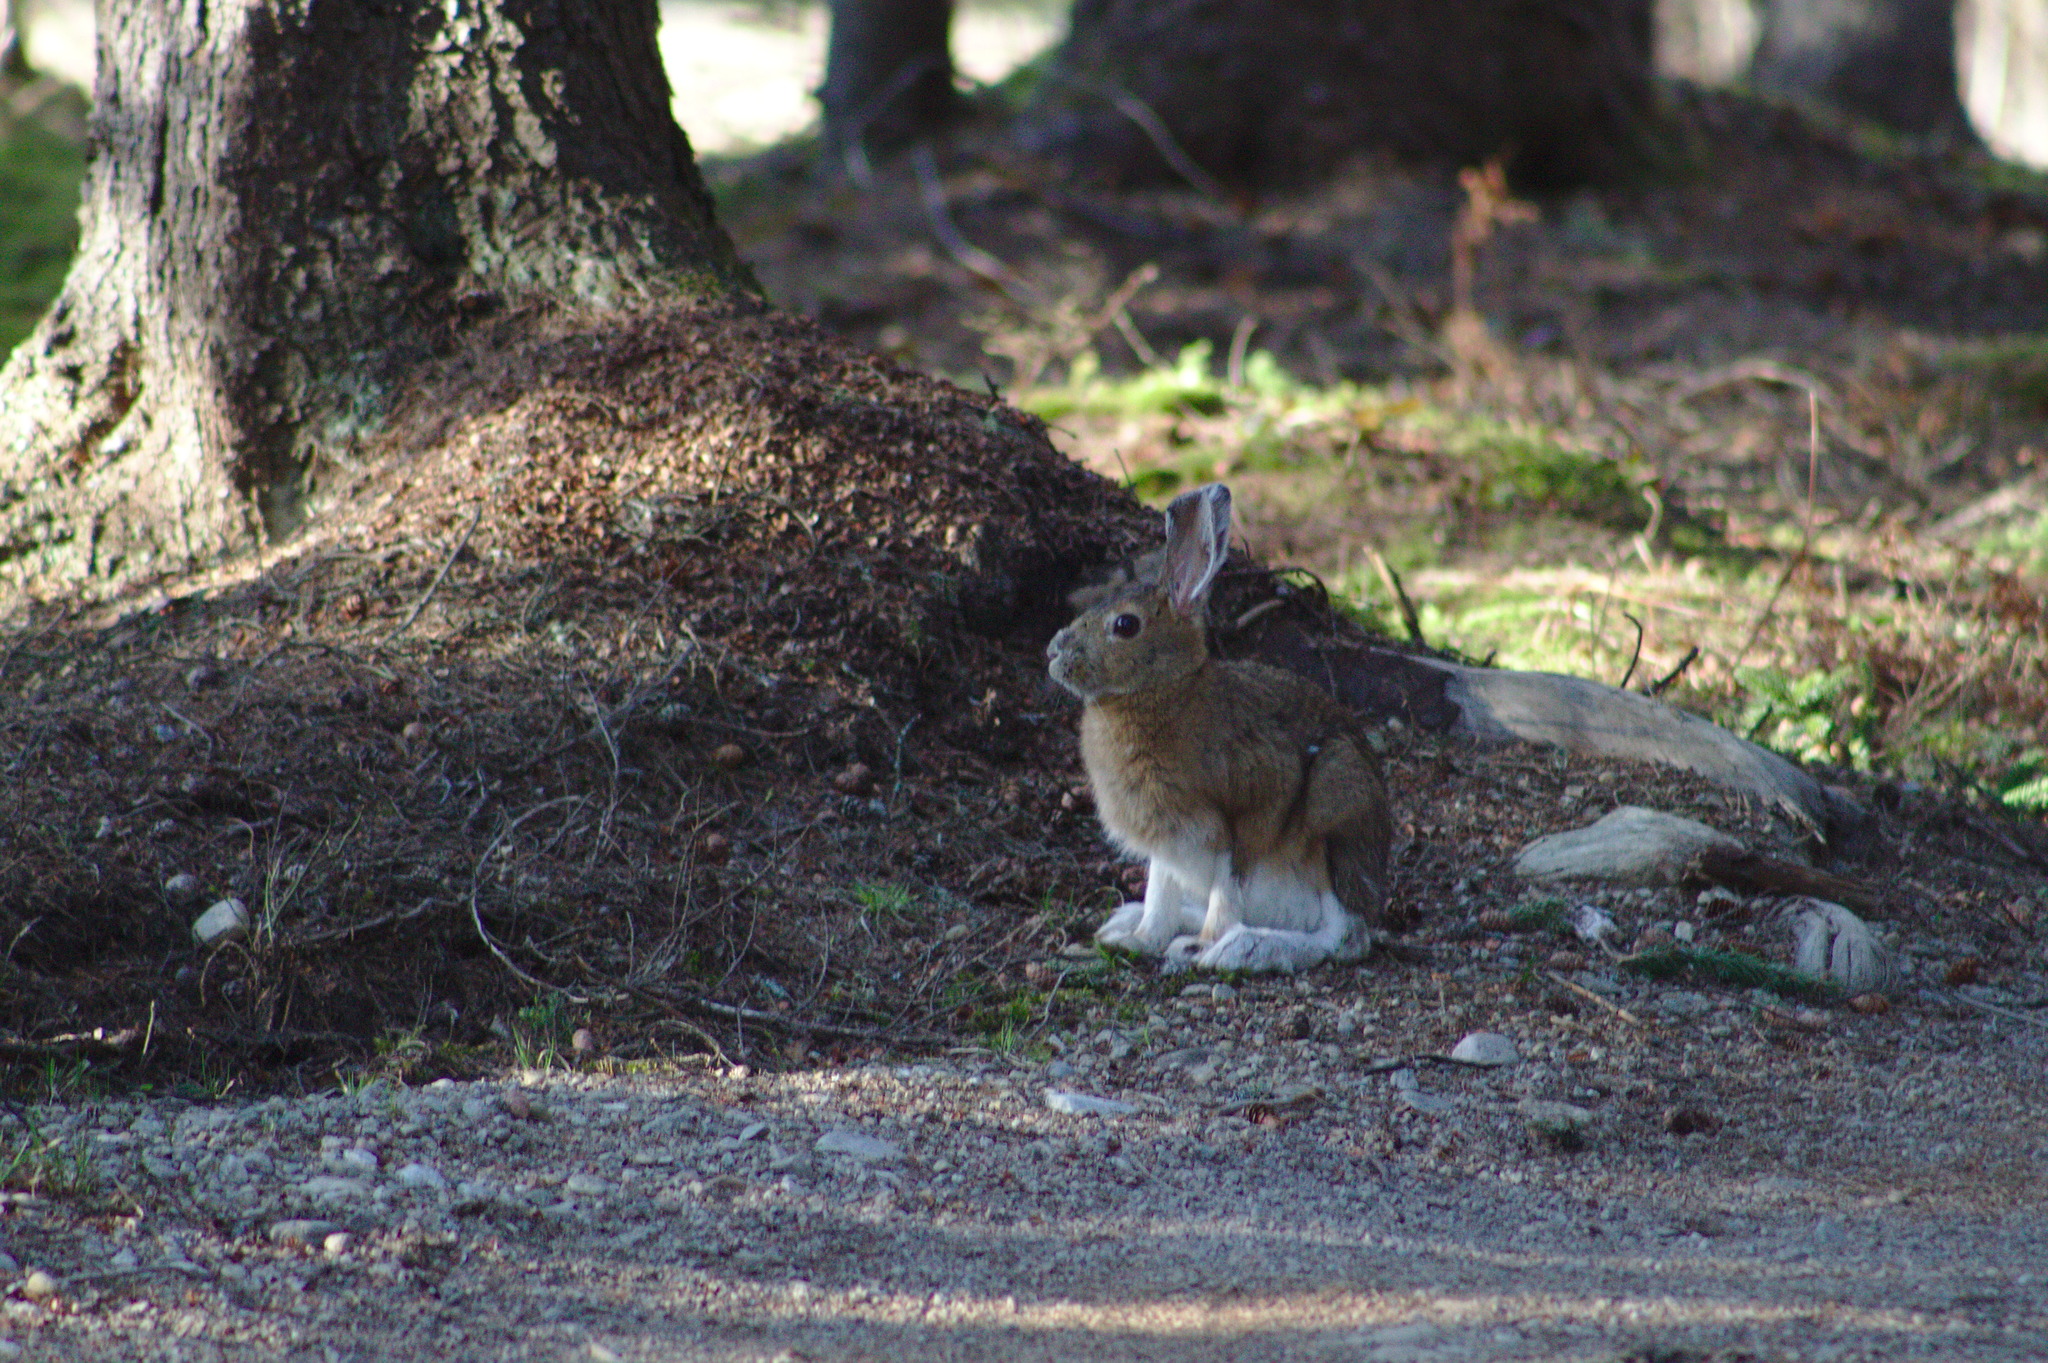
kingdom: Animalia
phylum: Chordata
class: Mammalia
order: Lagomorpha
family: Leporidae
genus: Lepus
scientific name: Lepus americanus
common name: Snowshoe hare
